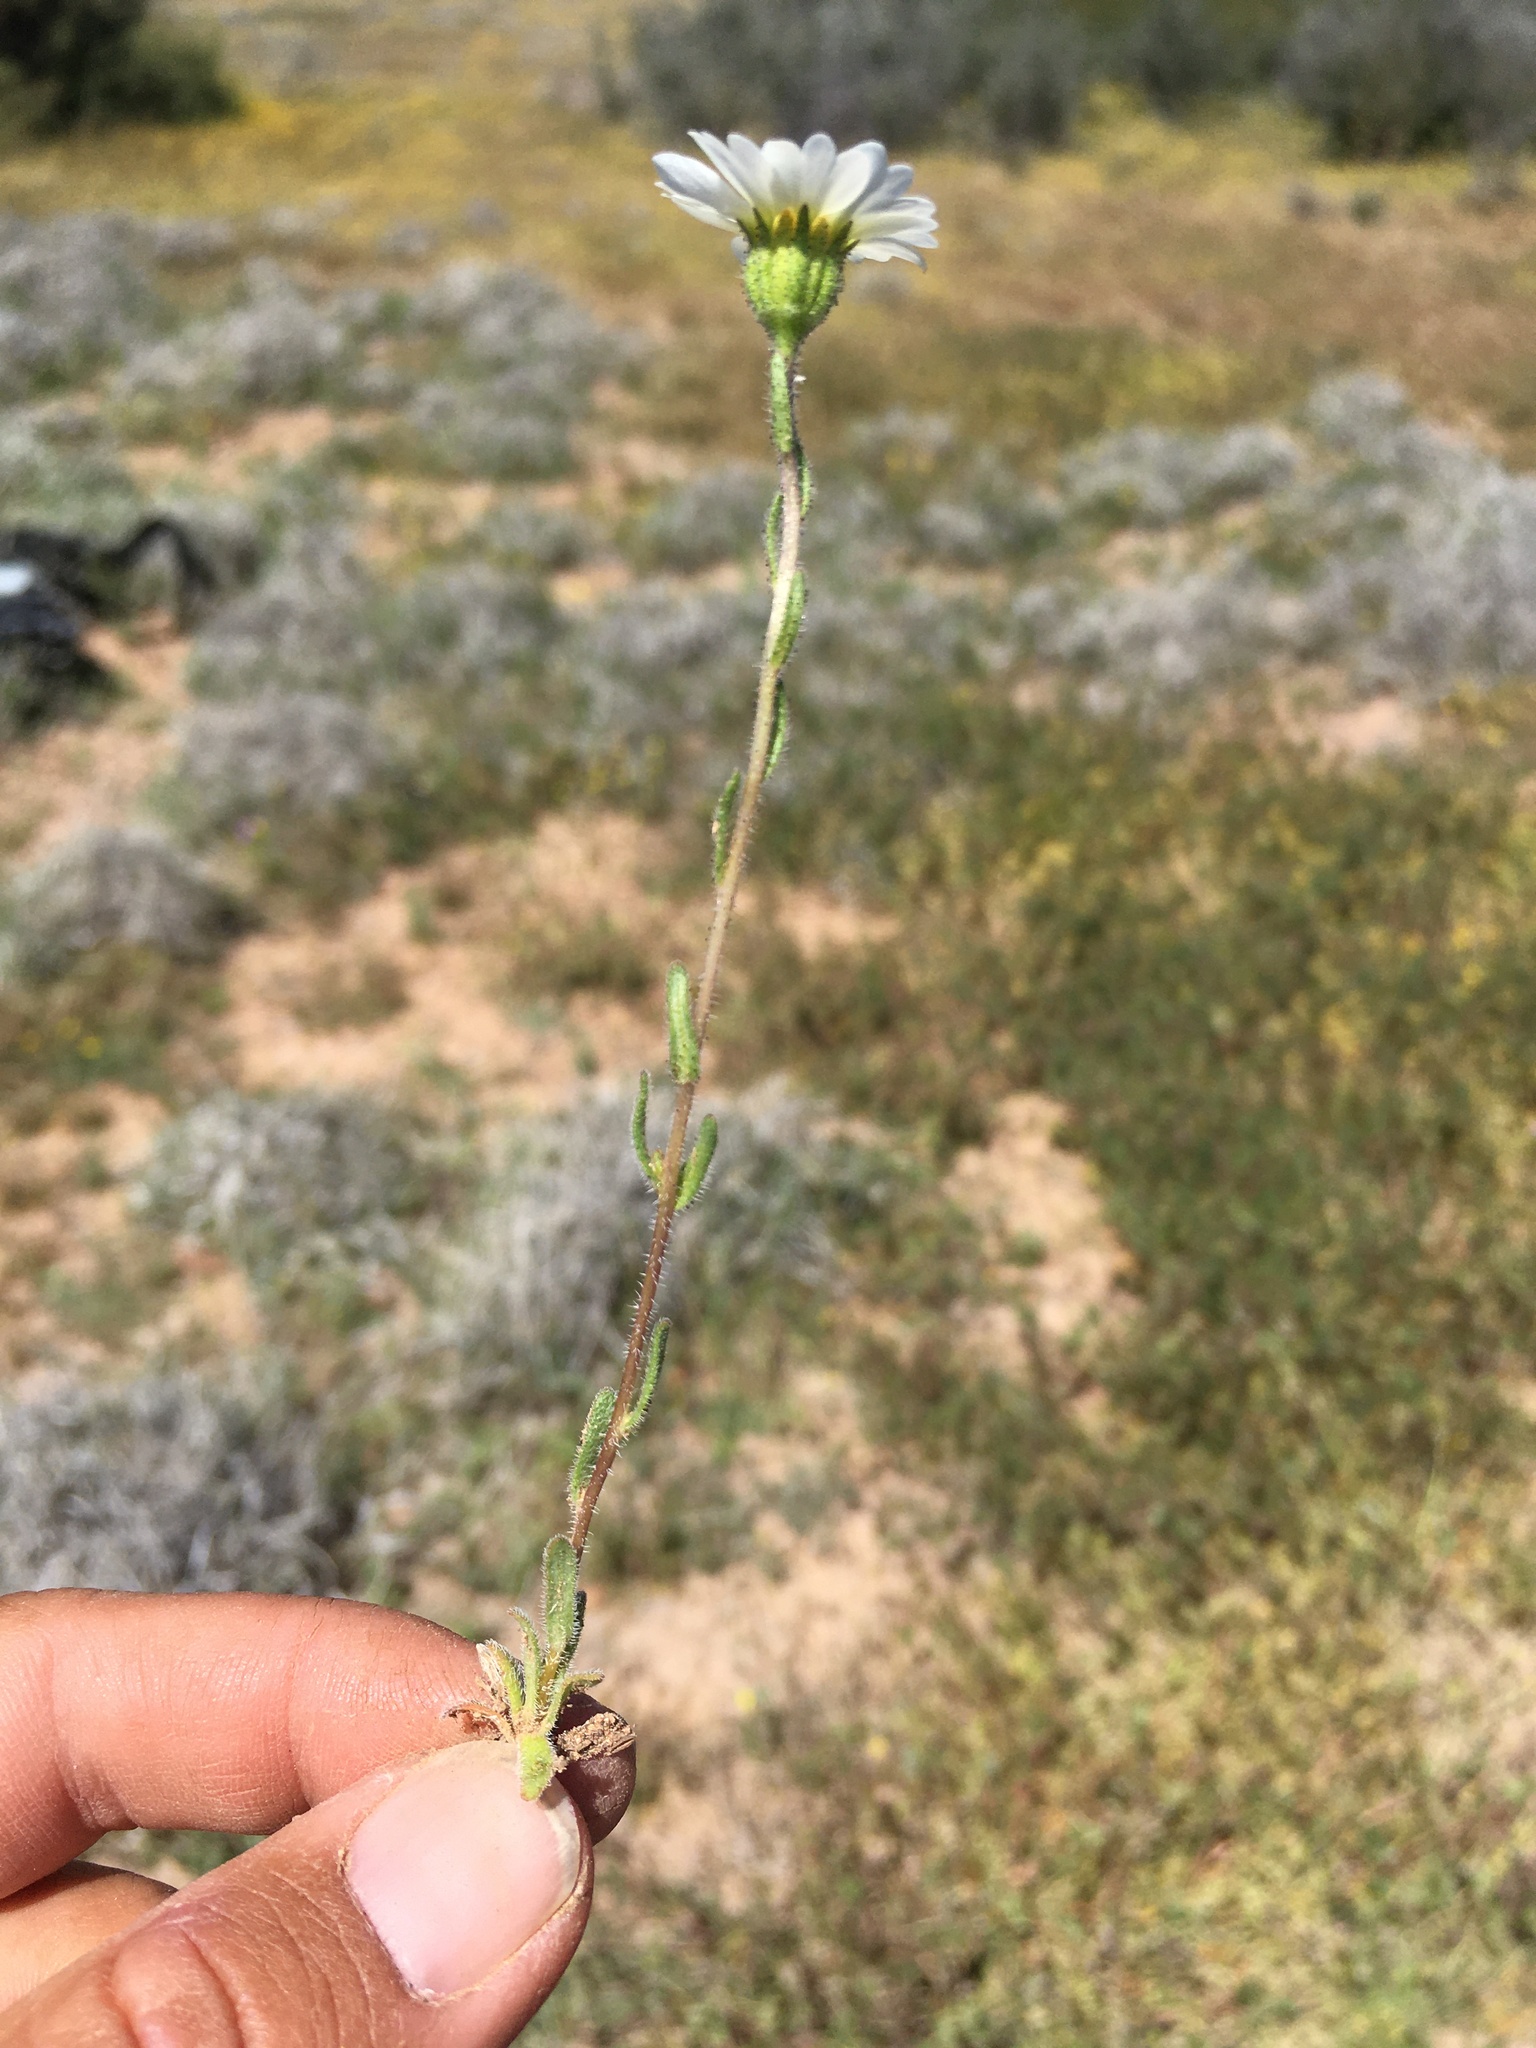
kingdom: Plantae
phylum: Tracheophyta
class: Magnoliopsida
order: Asterales
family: Asteraceae
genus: Layia
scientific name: Layia glandulosa
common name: White layia
